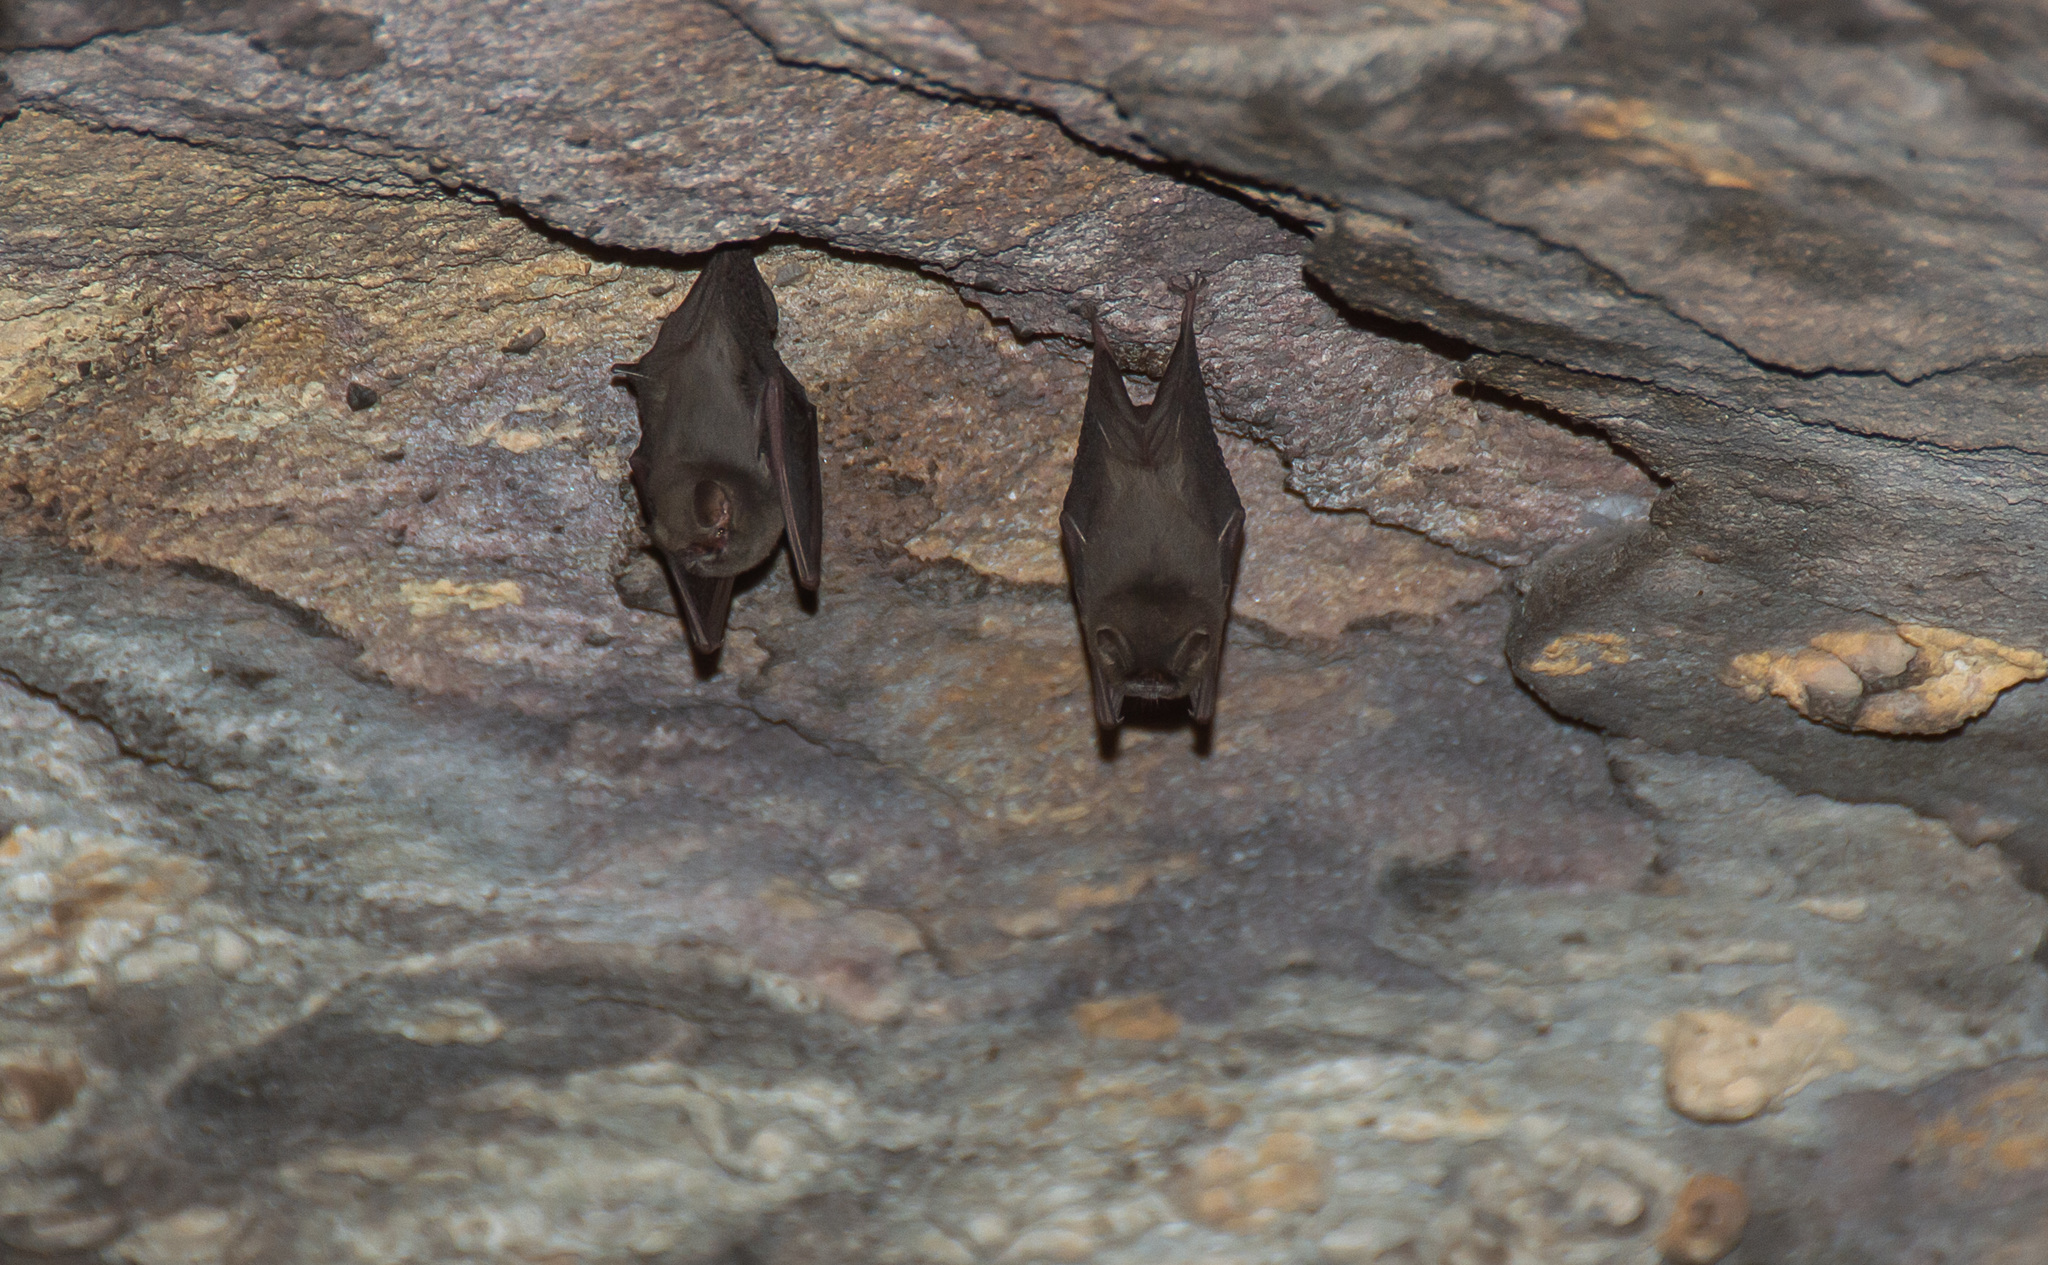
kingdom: Animalia
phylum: Chordata
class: Mammalia
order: Chiroptera
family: Furipteridae
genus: Furipterus
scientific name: Furipterus horrens
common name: Thumbless bat
